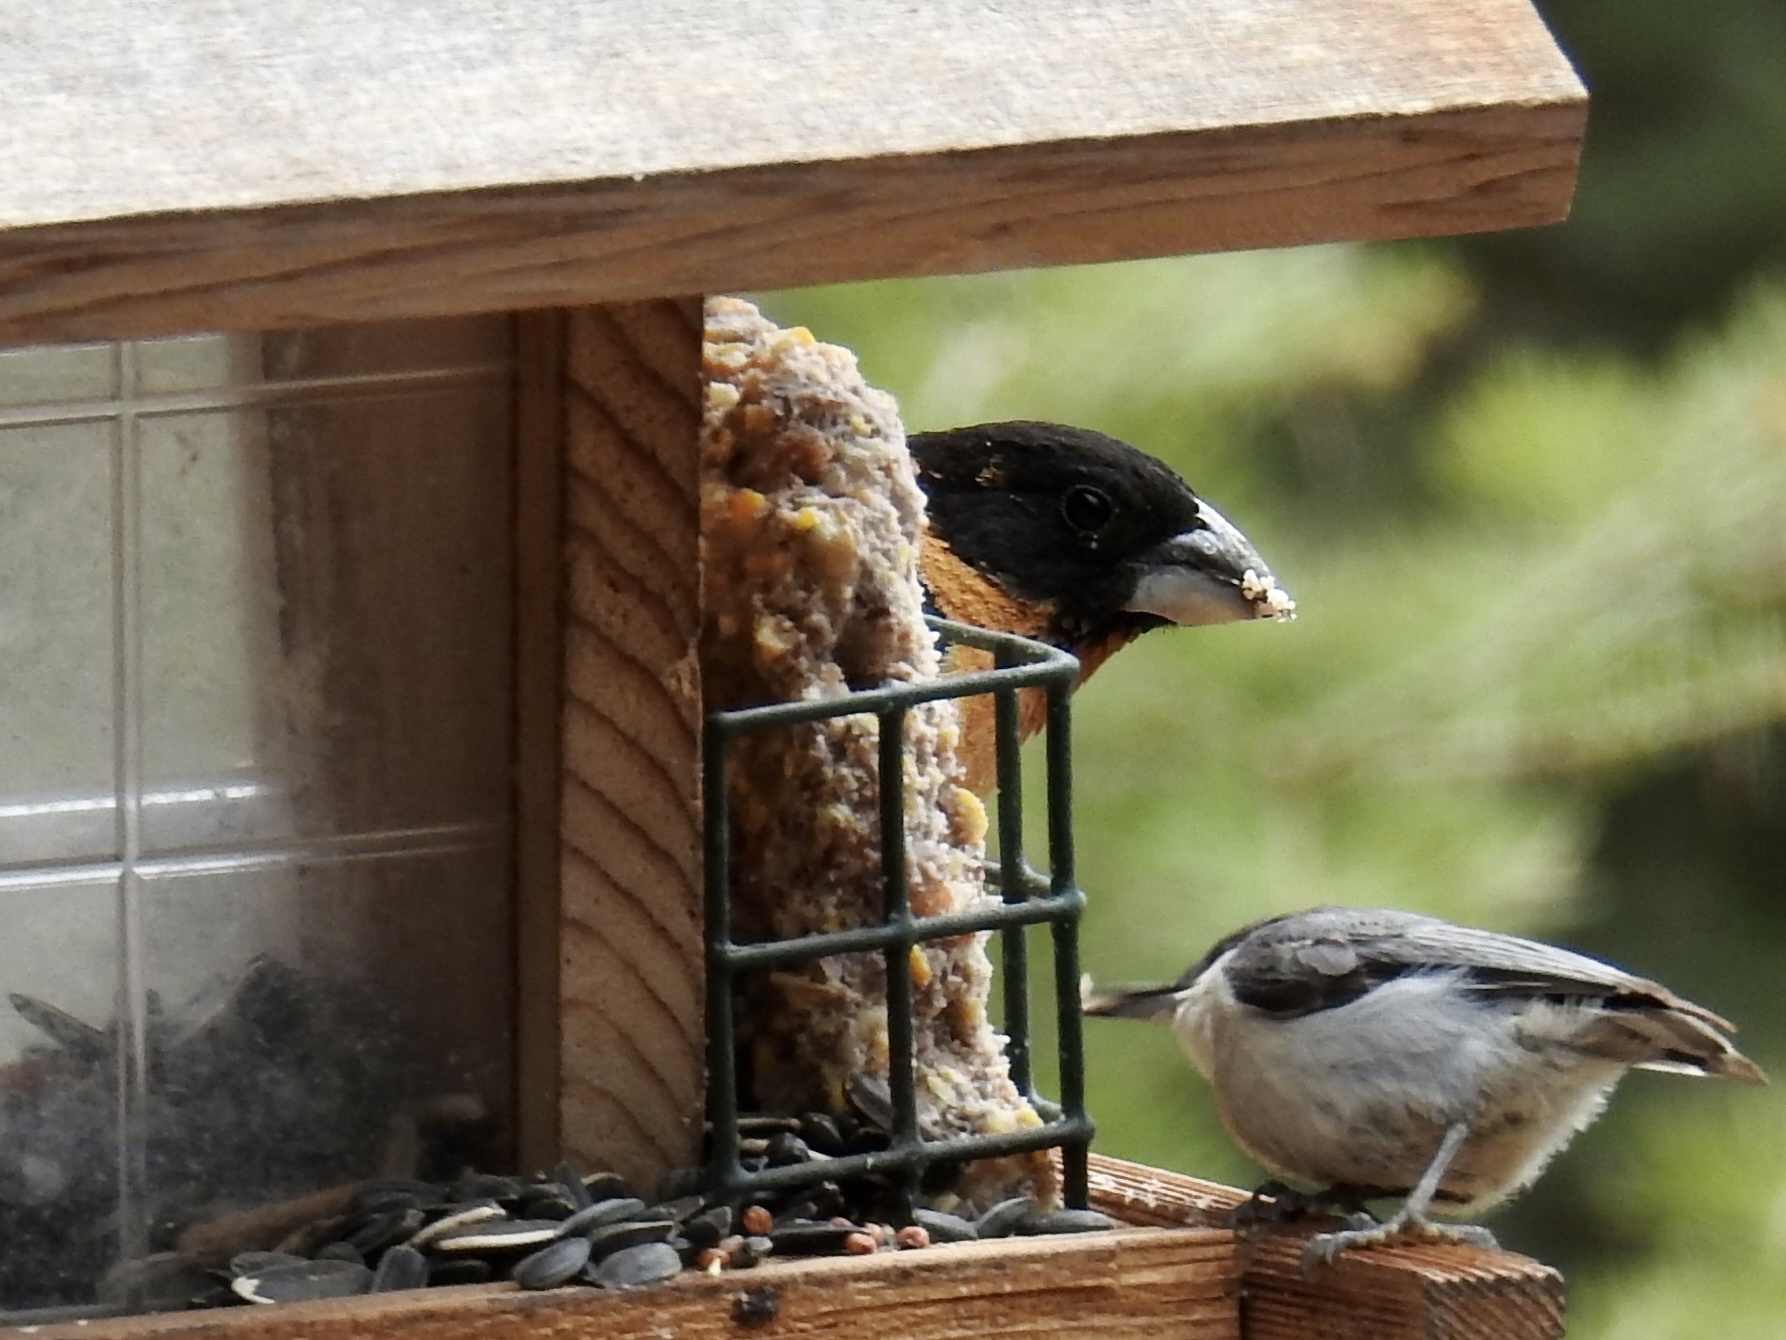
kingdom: Animalia
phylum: Chordata
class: Aves
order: Passeriformes
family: Cardinalidae
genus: Pheucticus
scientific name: Pheucticus melanocephalus
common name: Black-headed grosbeak
